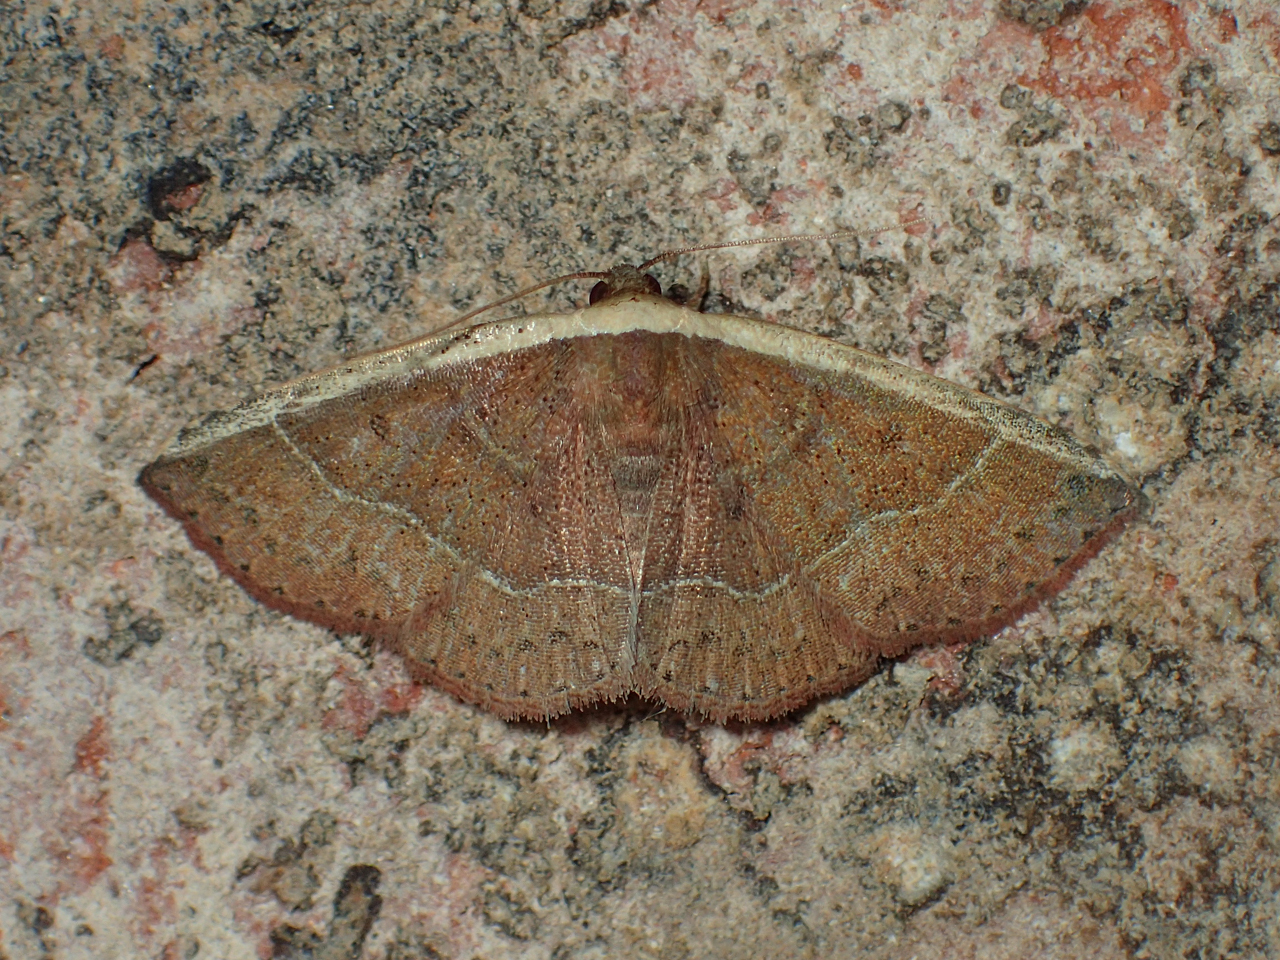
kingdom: Animalia
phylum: Arthropoda
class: Insecta
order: Lepidoptera
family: Noctuidae
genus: Ozarba
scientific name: Ozarba albocostaliata
